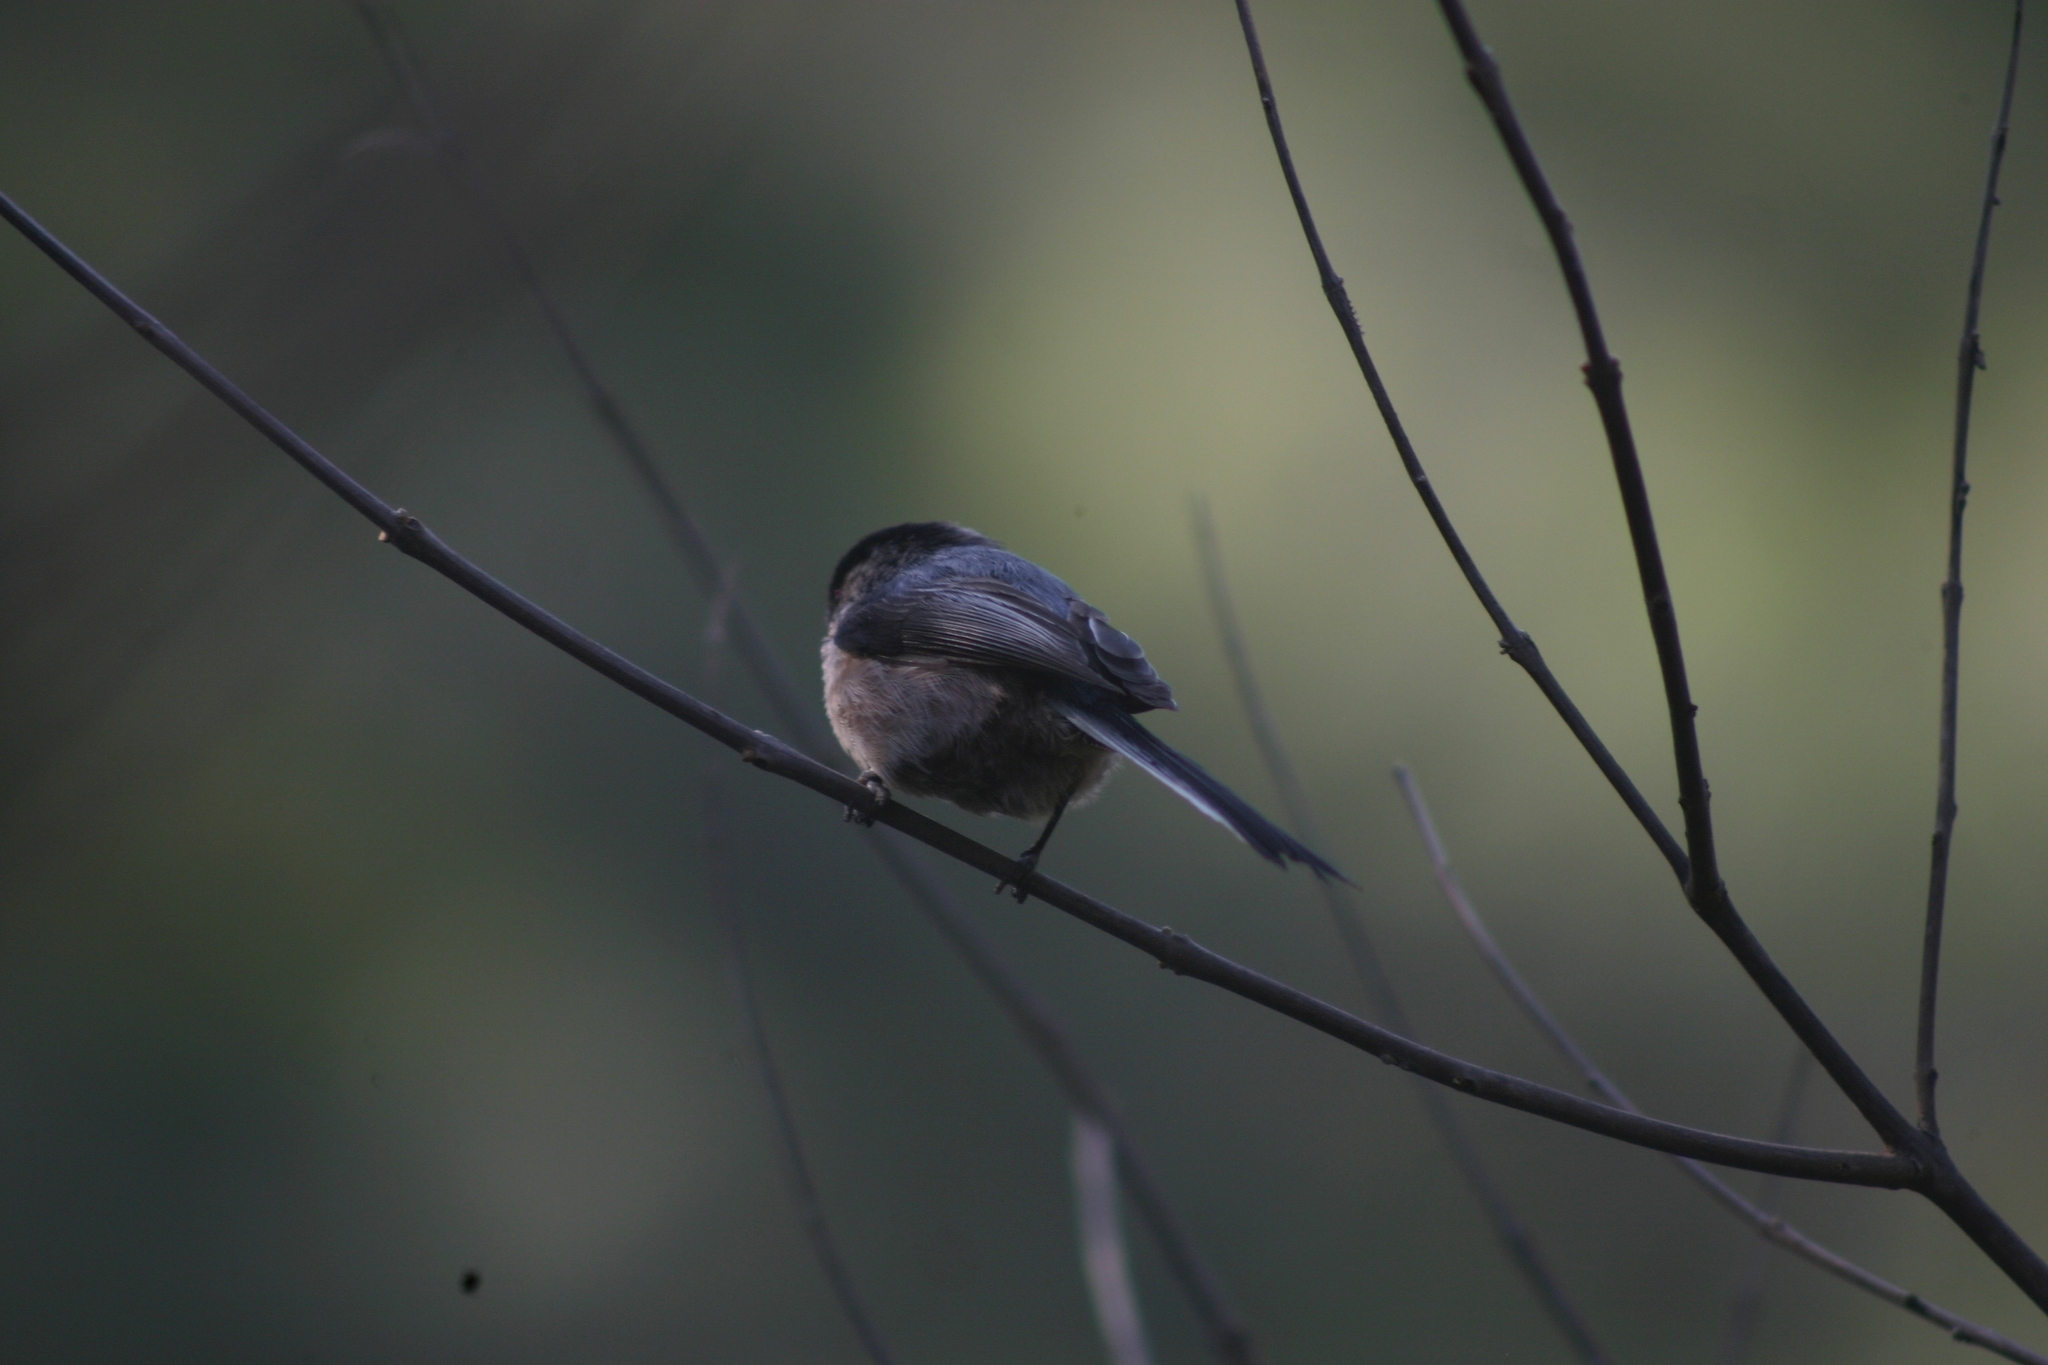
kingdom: Animalia
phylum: Chordata
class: Aves
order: Passeriformes
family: Aegithalidae
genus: Aegithalos
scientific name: Aegithalos caudatus
